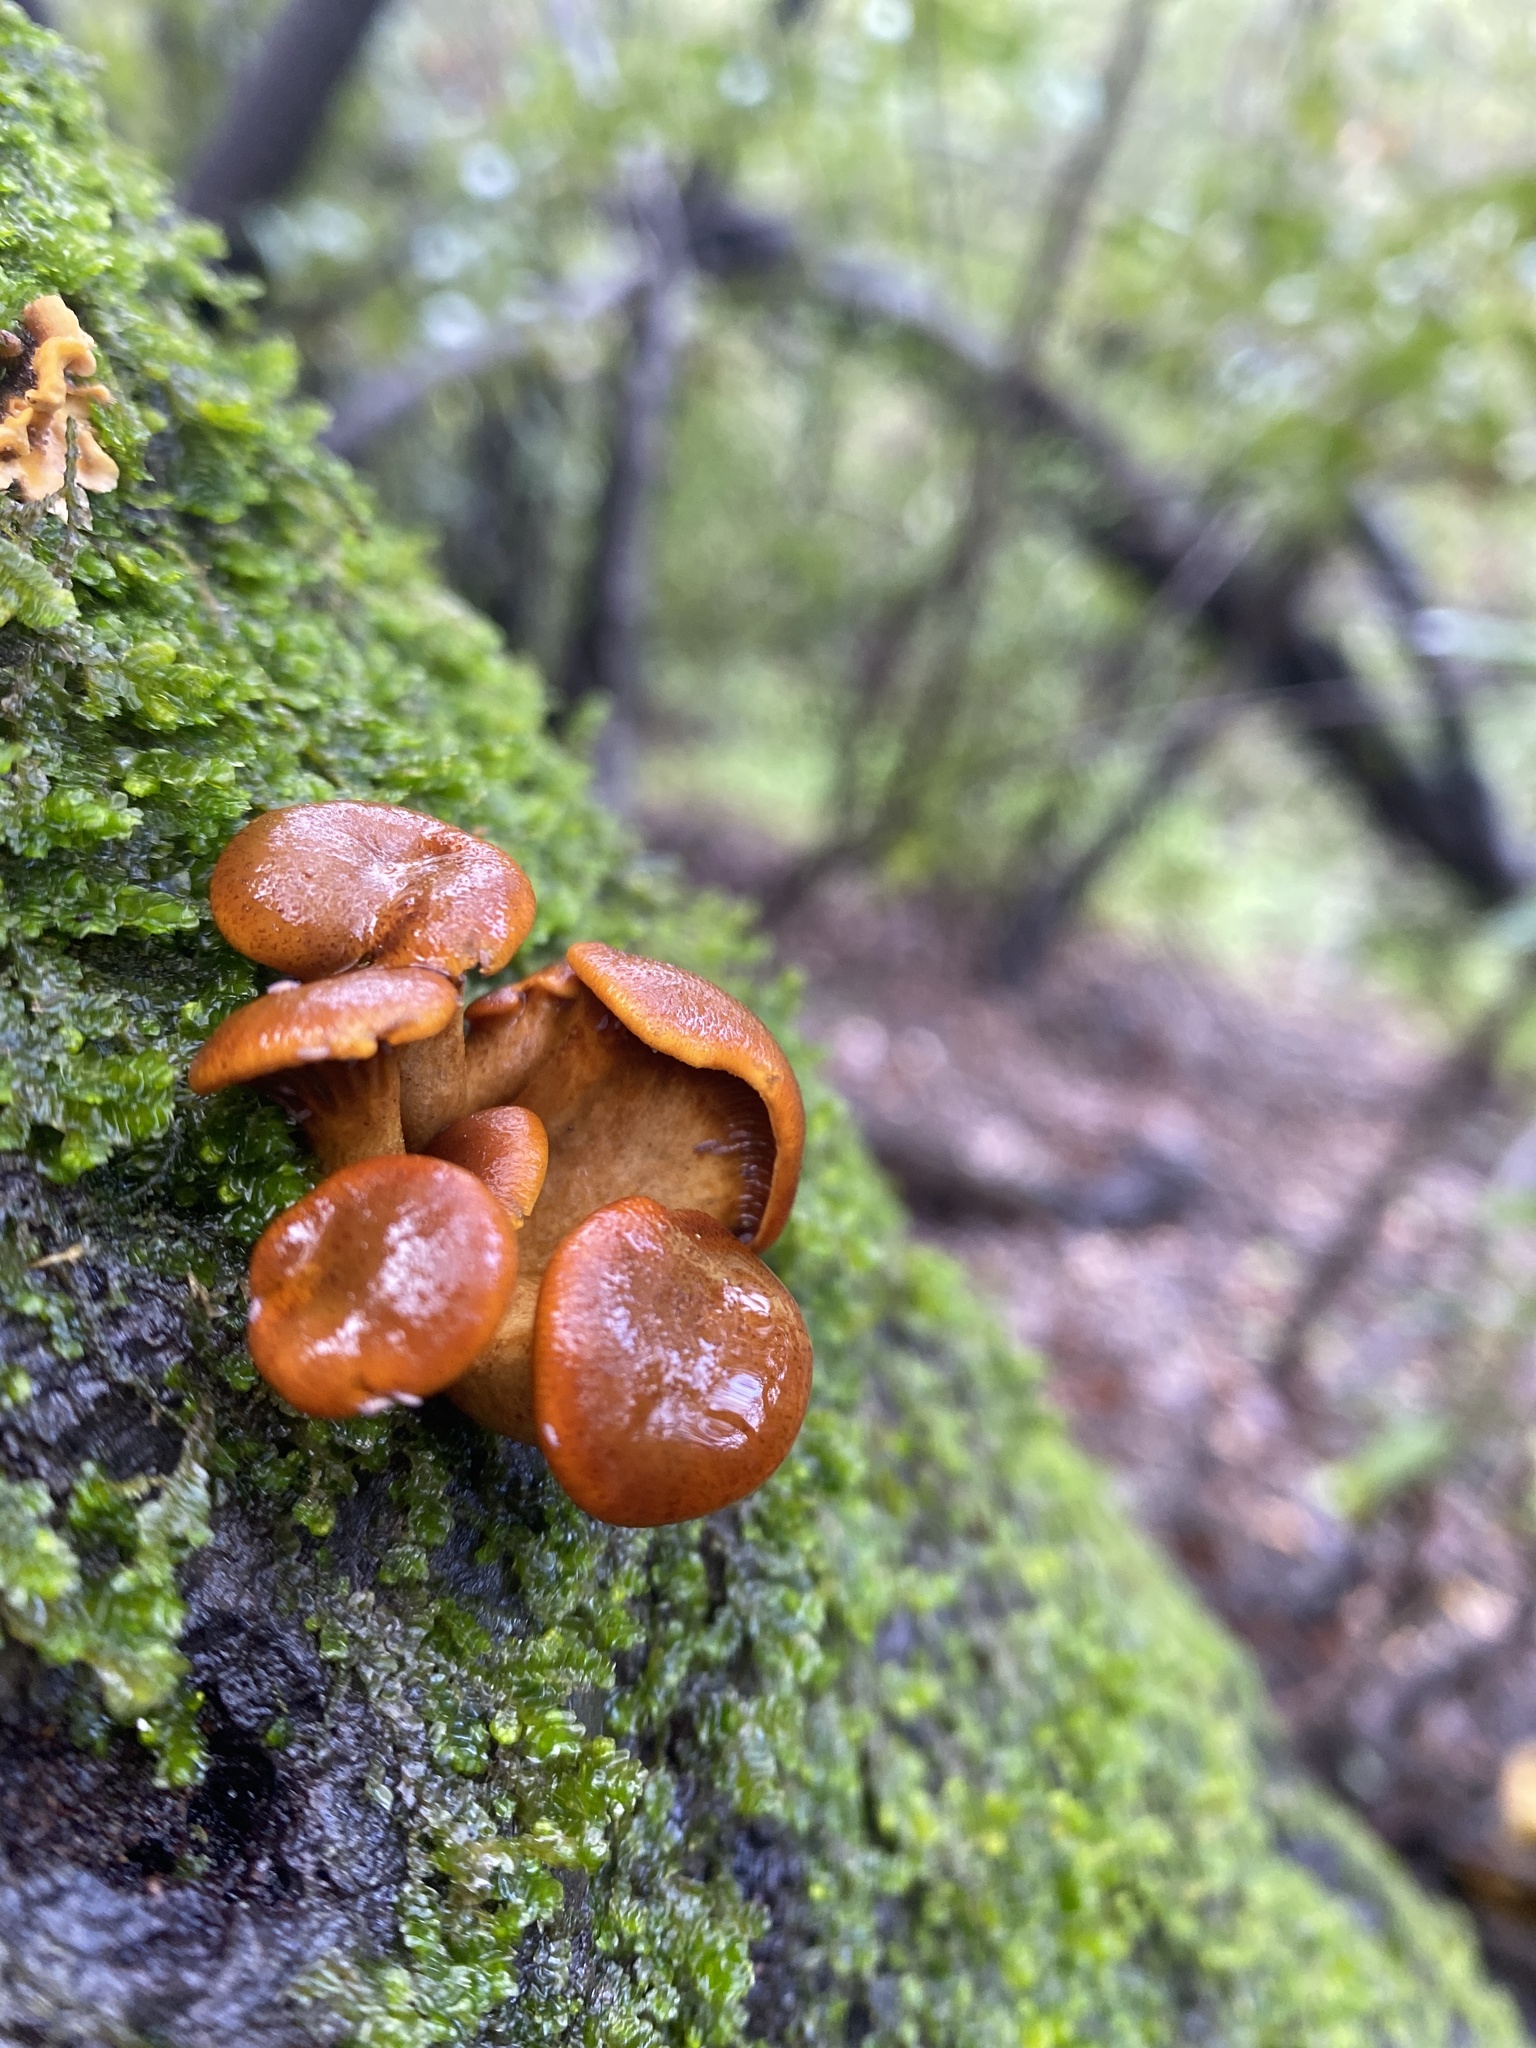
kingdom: Fungi
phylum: Basidiomycota
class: Agaricomycetes
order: Agaricales
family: Omphalotaceae
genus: Omphalotus
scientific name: Omphalotus olivascens
